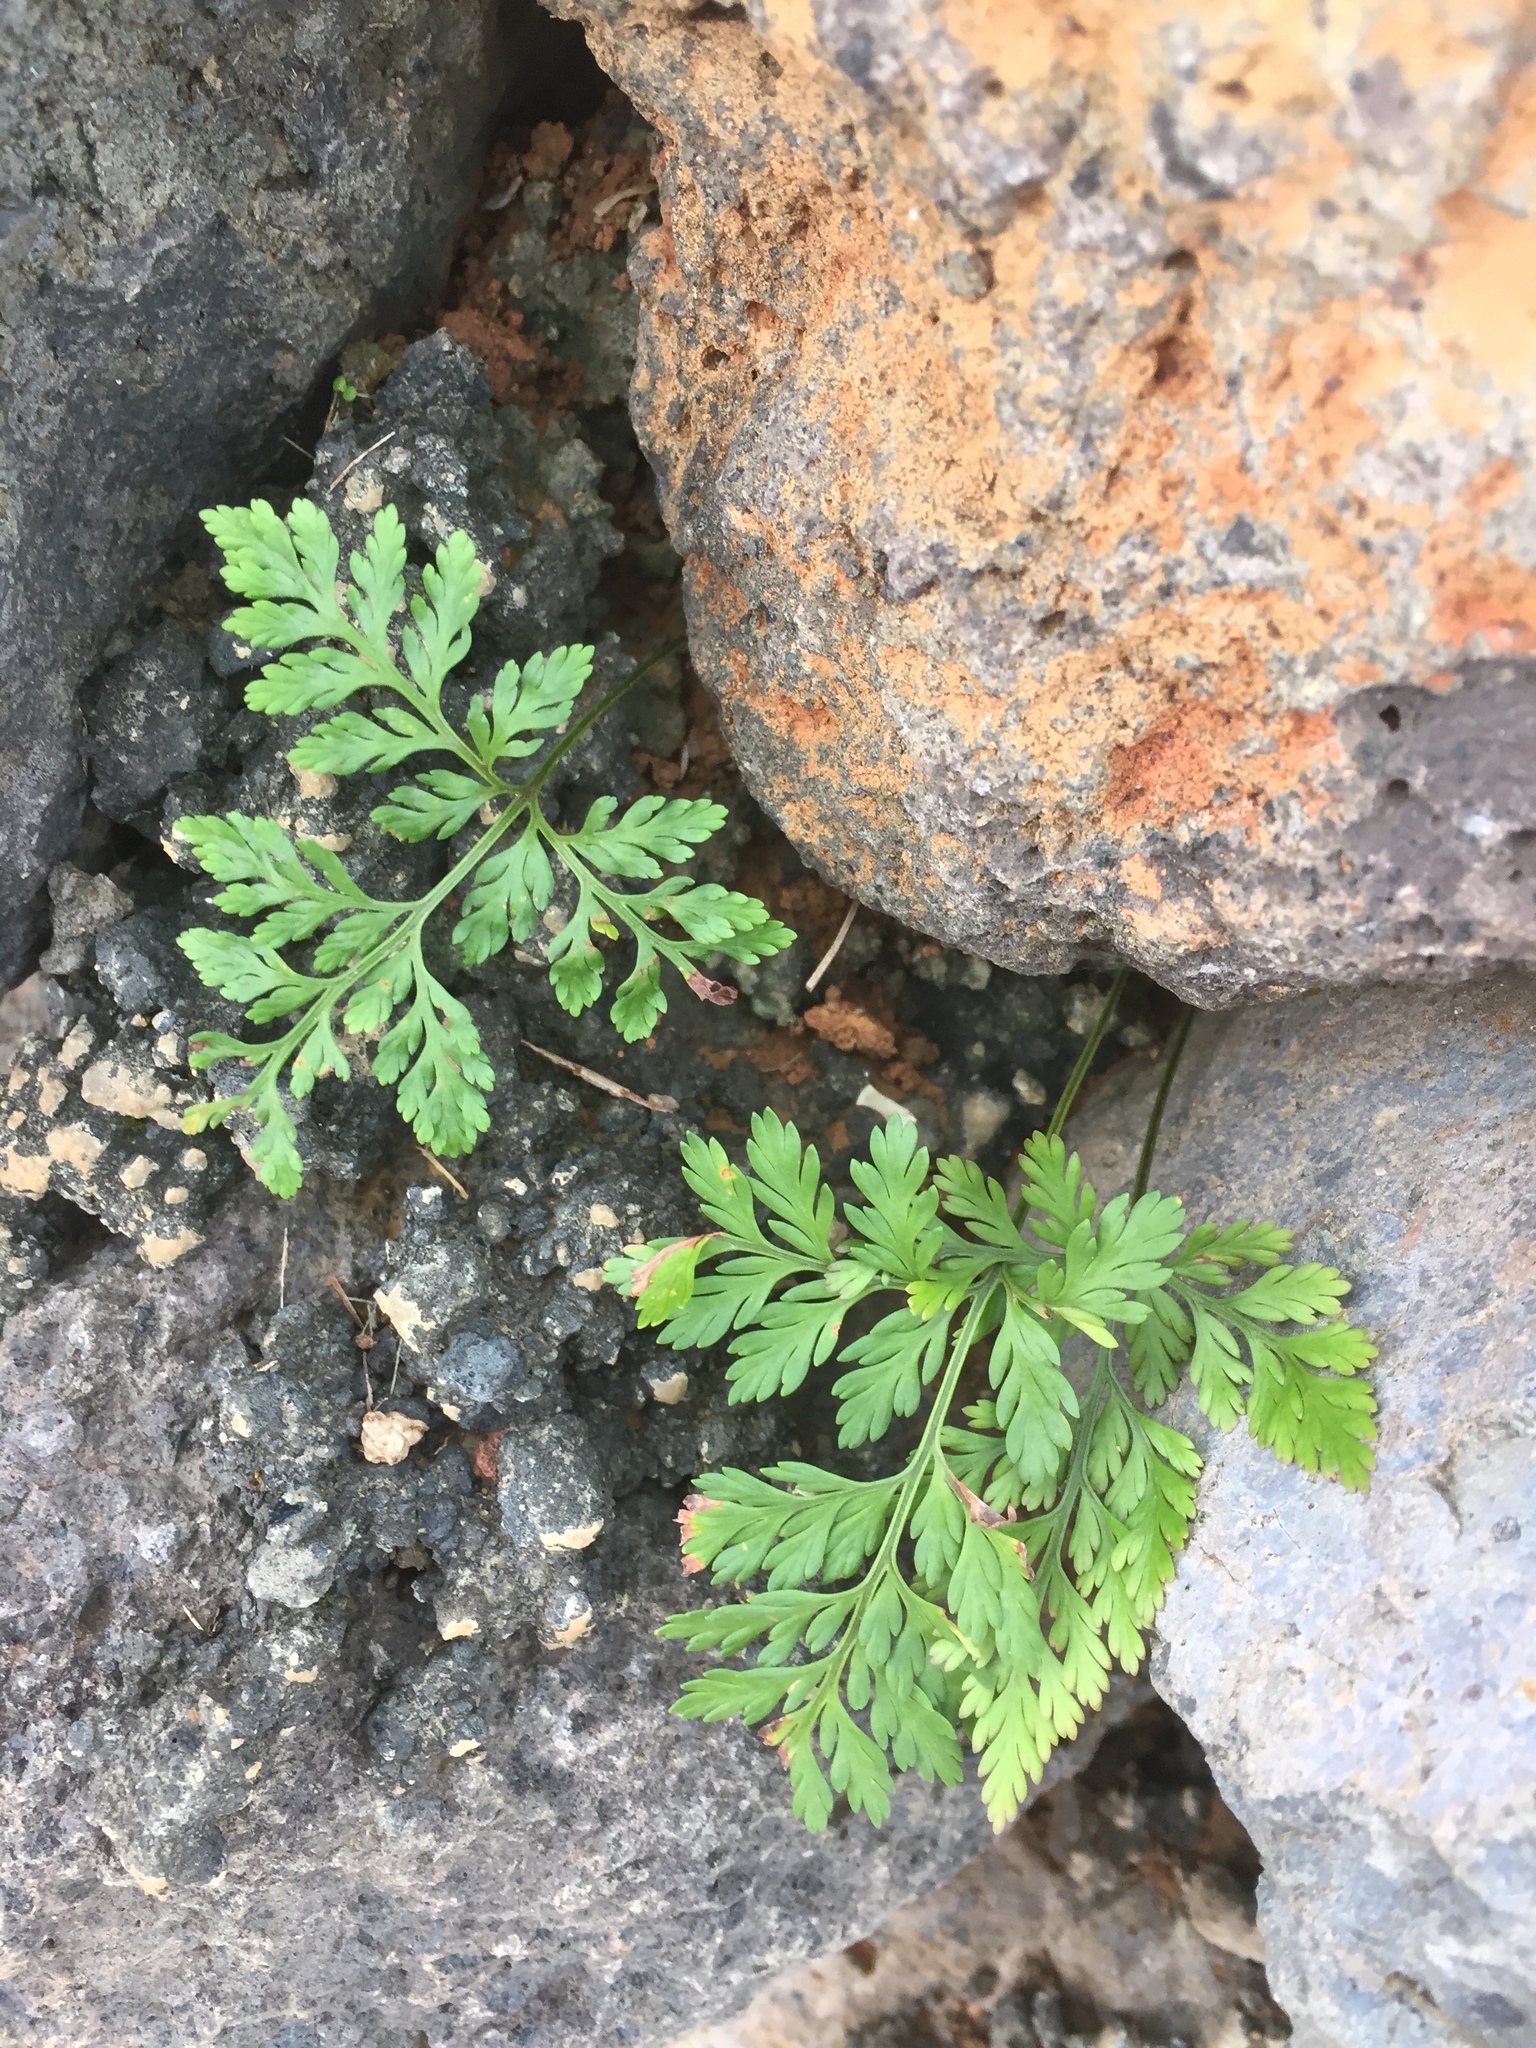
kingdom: Plantae
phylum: Tracheophyta
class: Polypodiopsida
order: Polypodiales
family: Davalliaceae
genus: Davallia
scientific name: Davallia canariensis
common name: Hare's-foot fern
